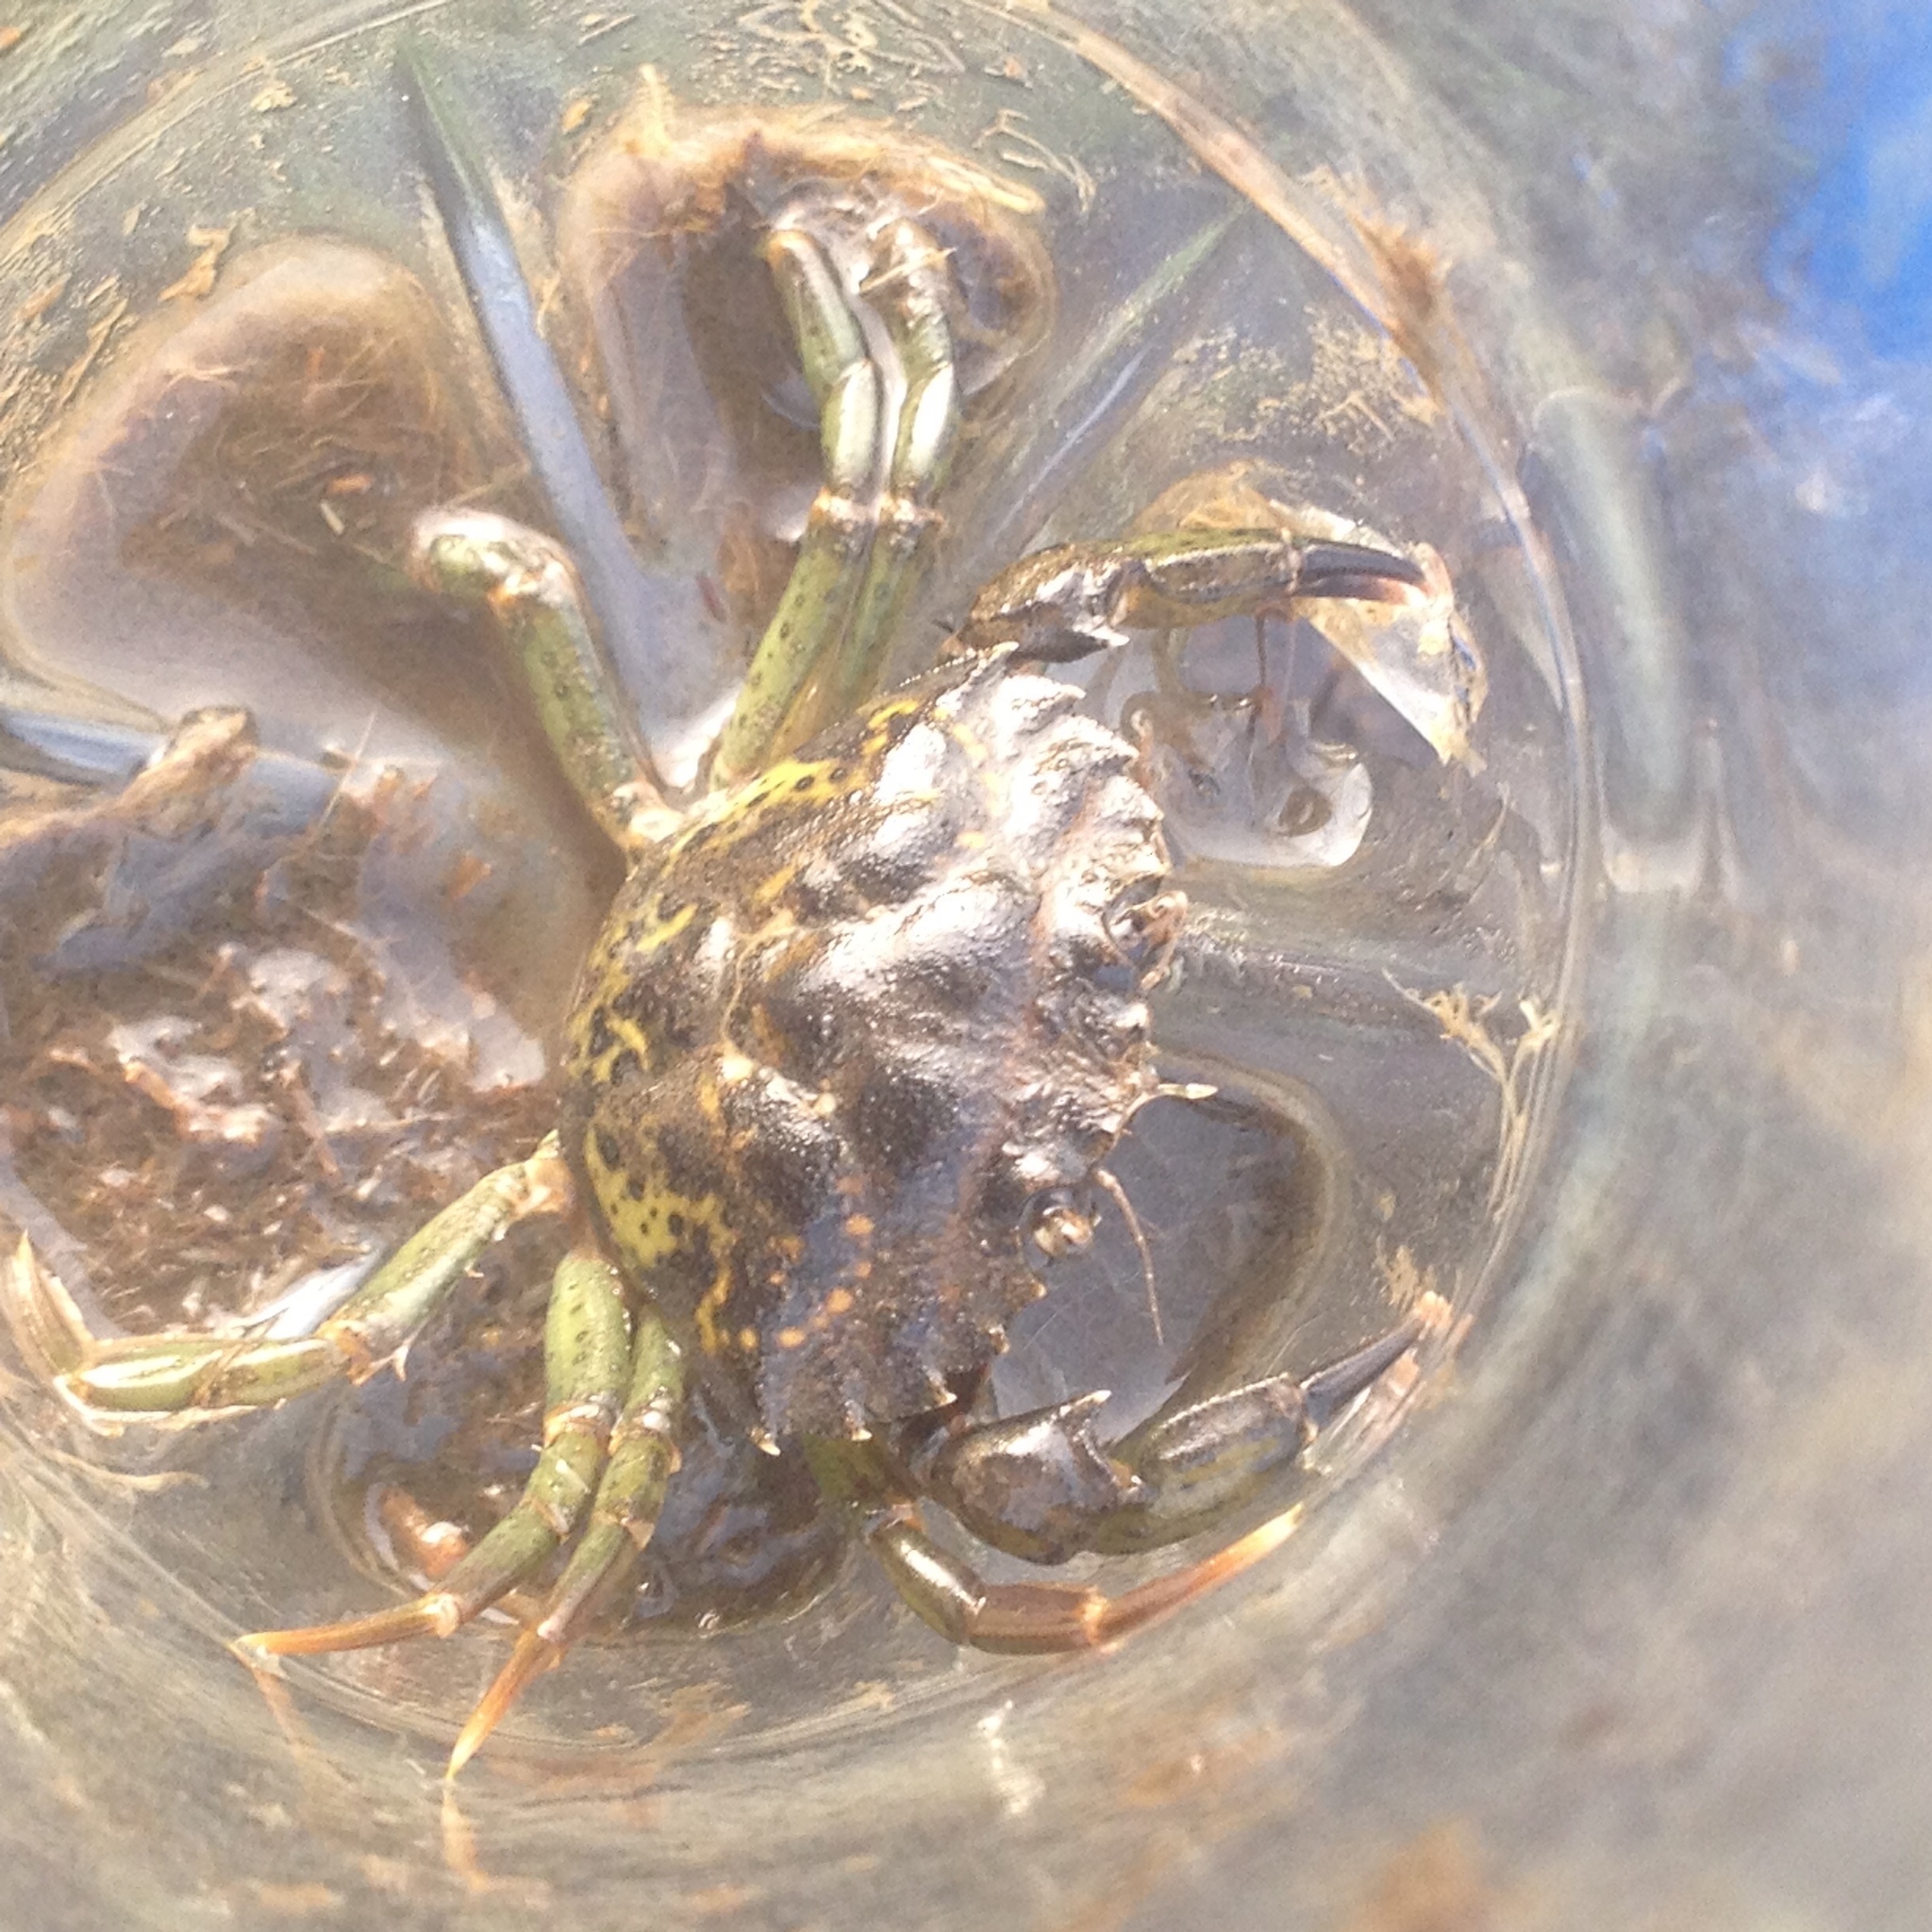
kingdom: Animalia
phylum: Arthropoda
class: Malacostraca
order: Decapoda
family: Carcinidae
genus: Carcinus
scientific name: Carcinus maenas
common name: European green crab
